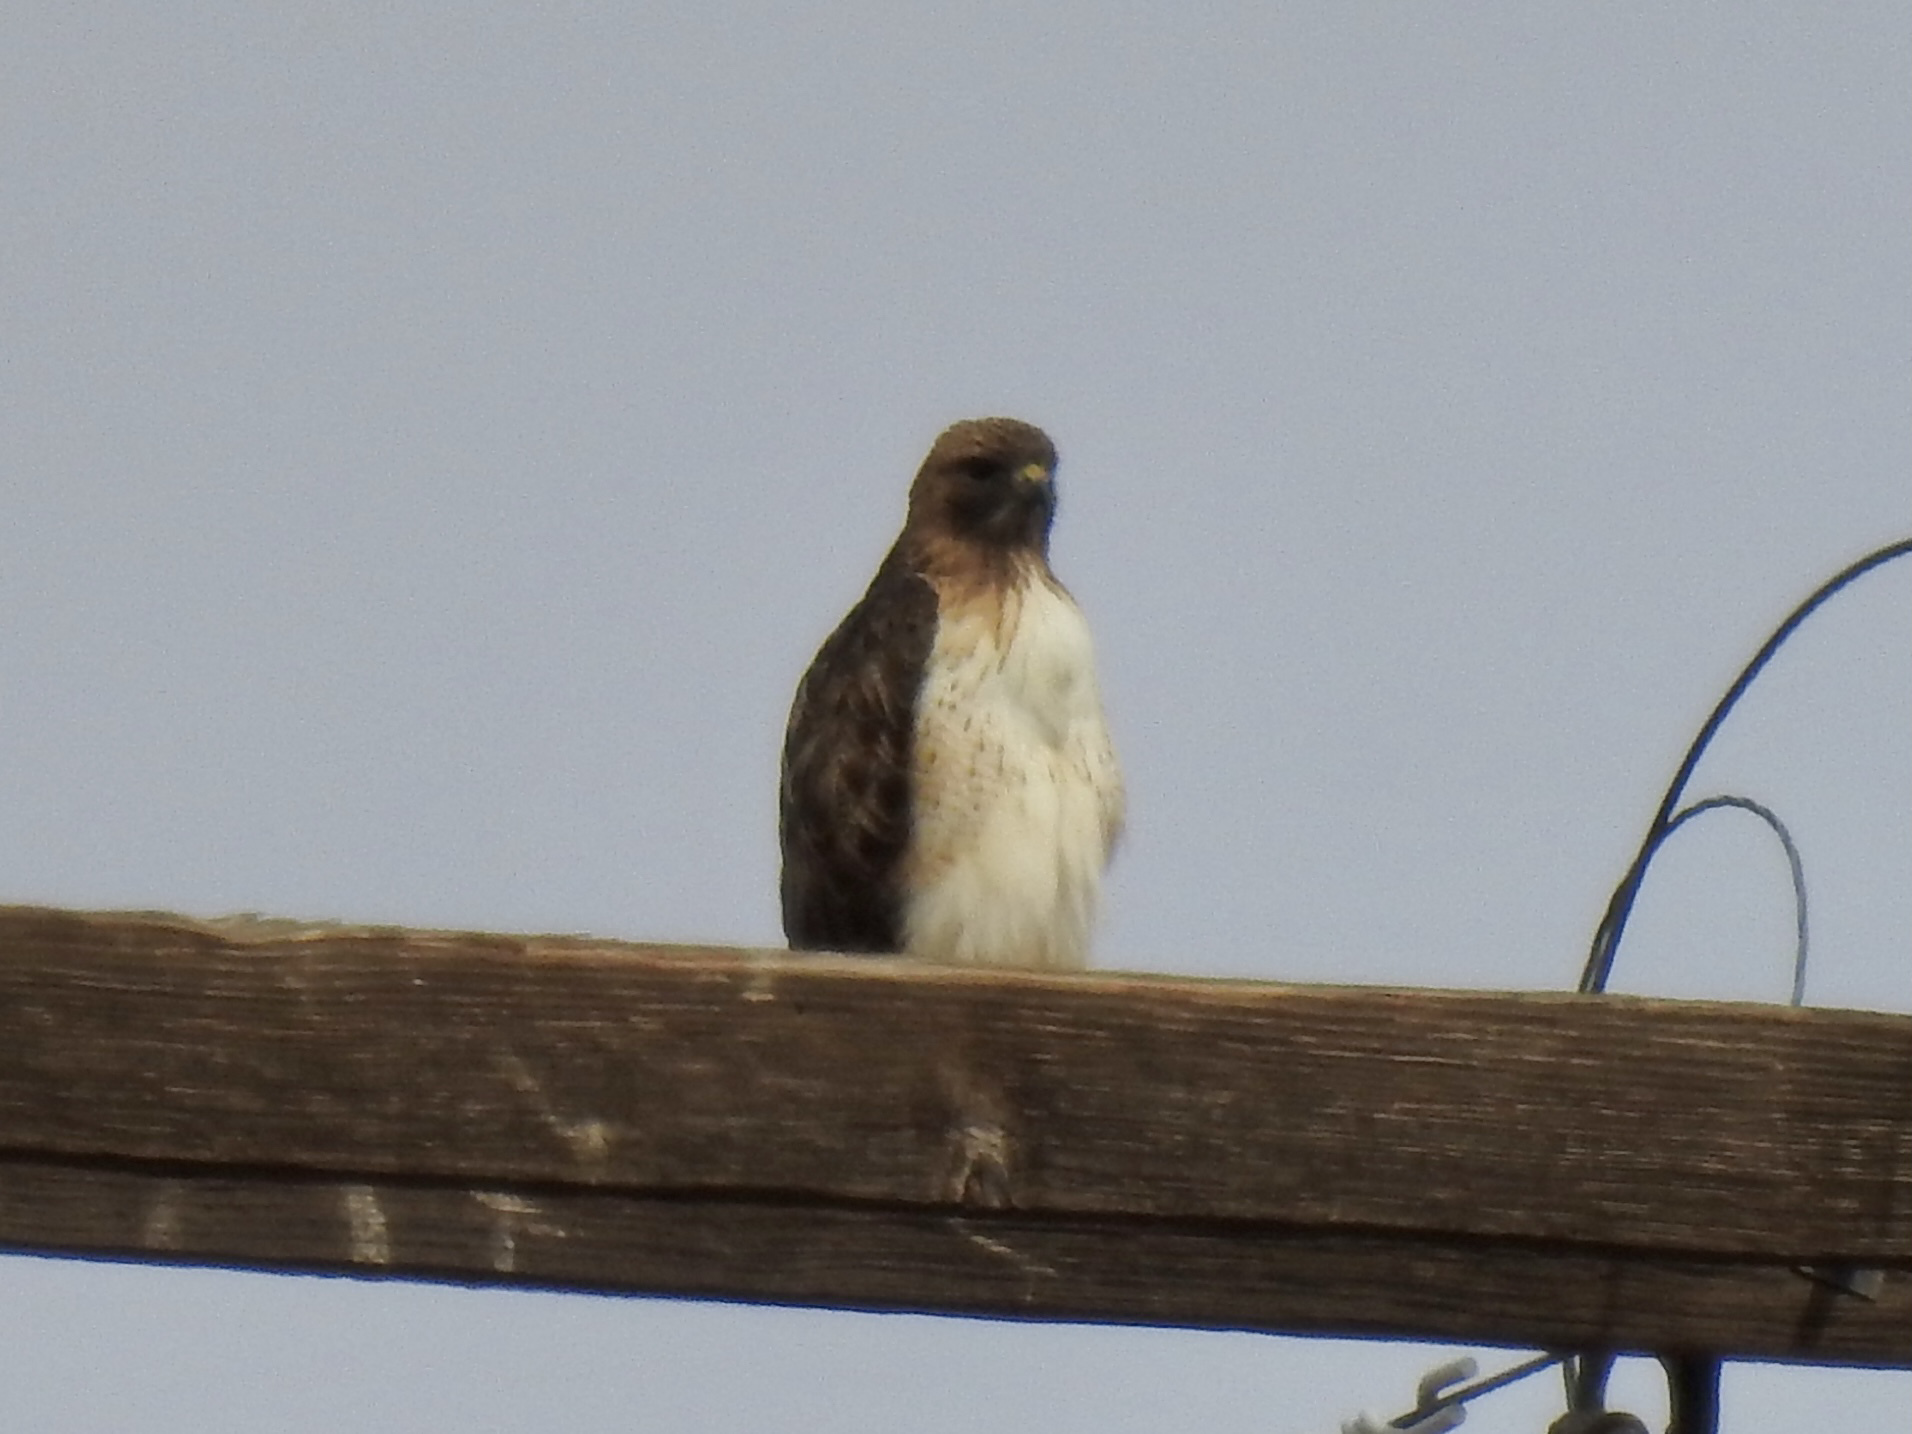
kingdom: Animalia
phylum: Chordata
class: Aves
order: Accipitriformes
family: Accipitridae
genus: Buteo
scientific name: Buteo jamaicensis
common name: Red-tailed hawk
